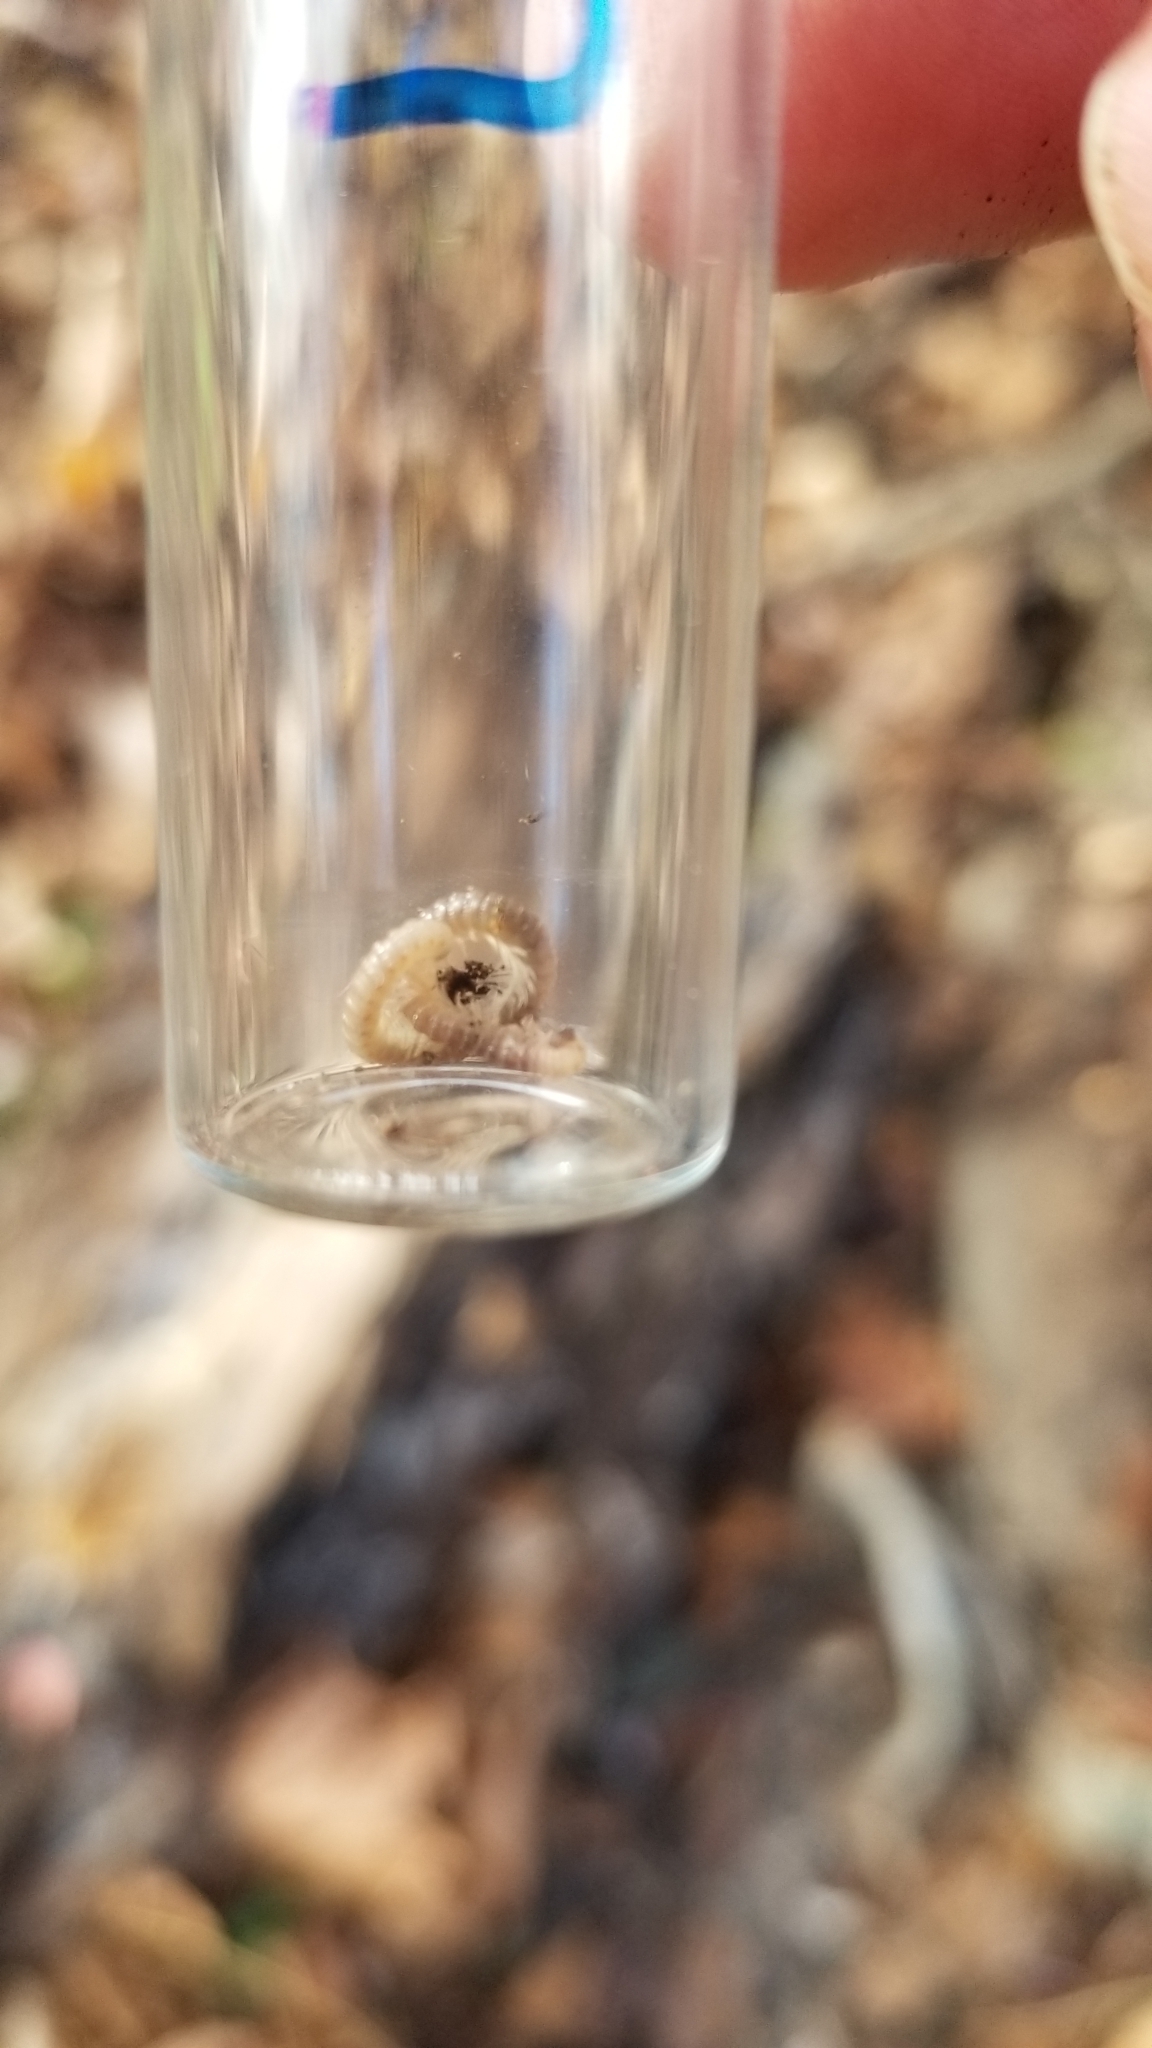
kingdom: Animalia
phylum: Arthropoda
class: Diplopoda
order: Spirostreptida
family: Cambalidae
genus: Cambala
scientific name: Cambala minor
